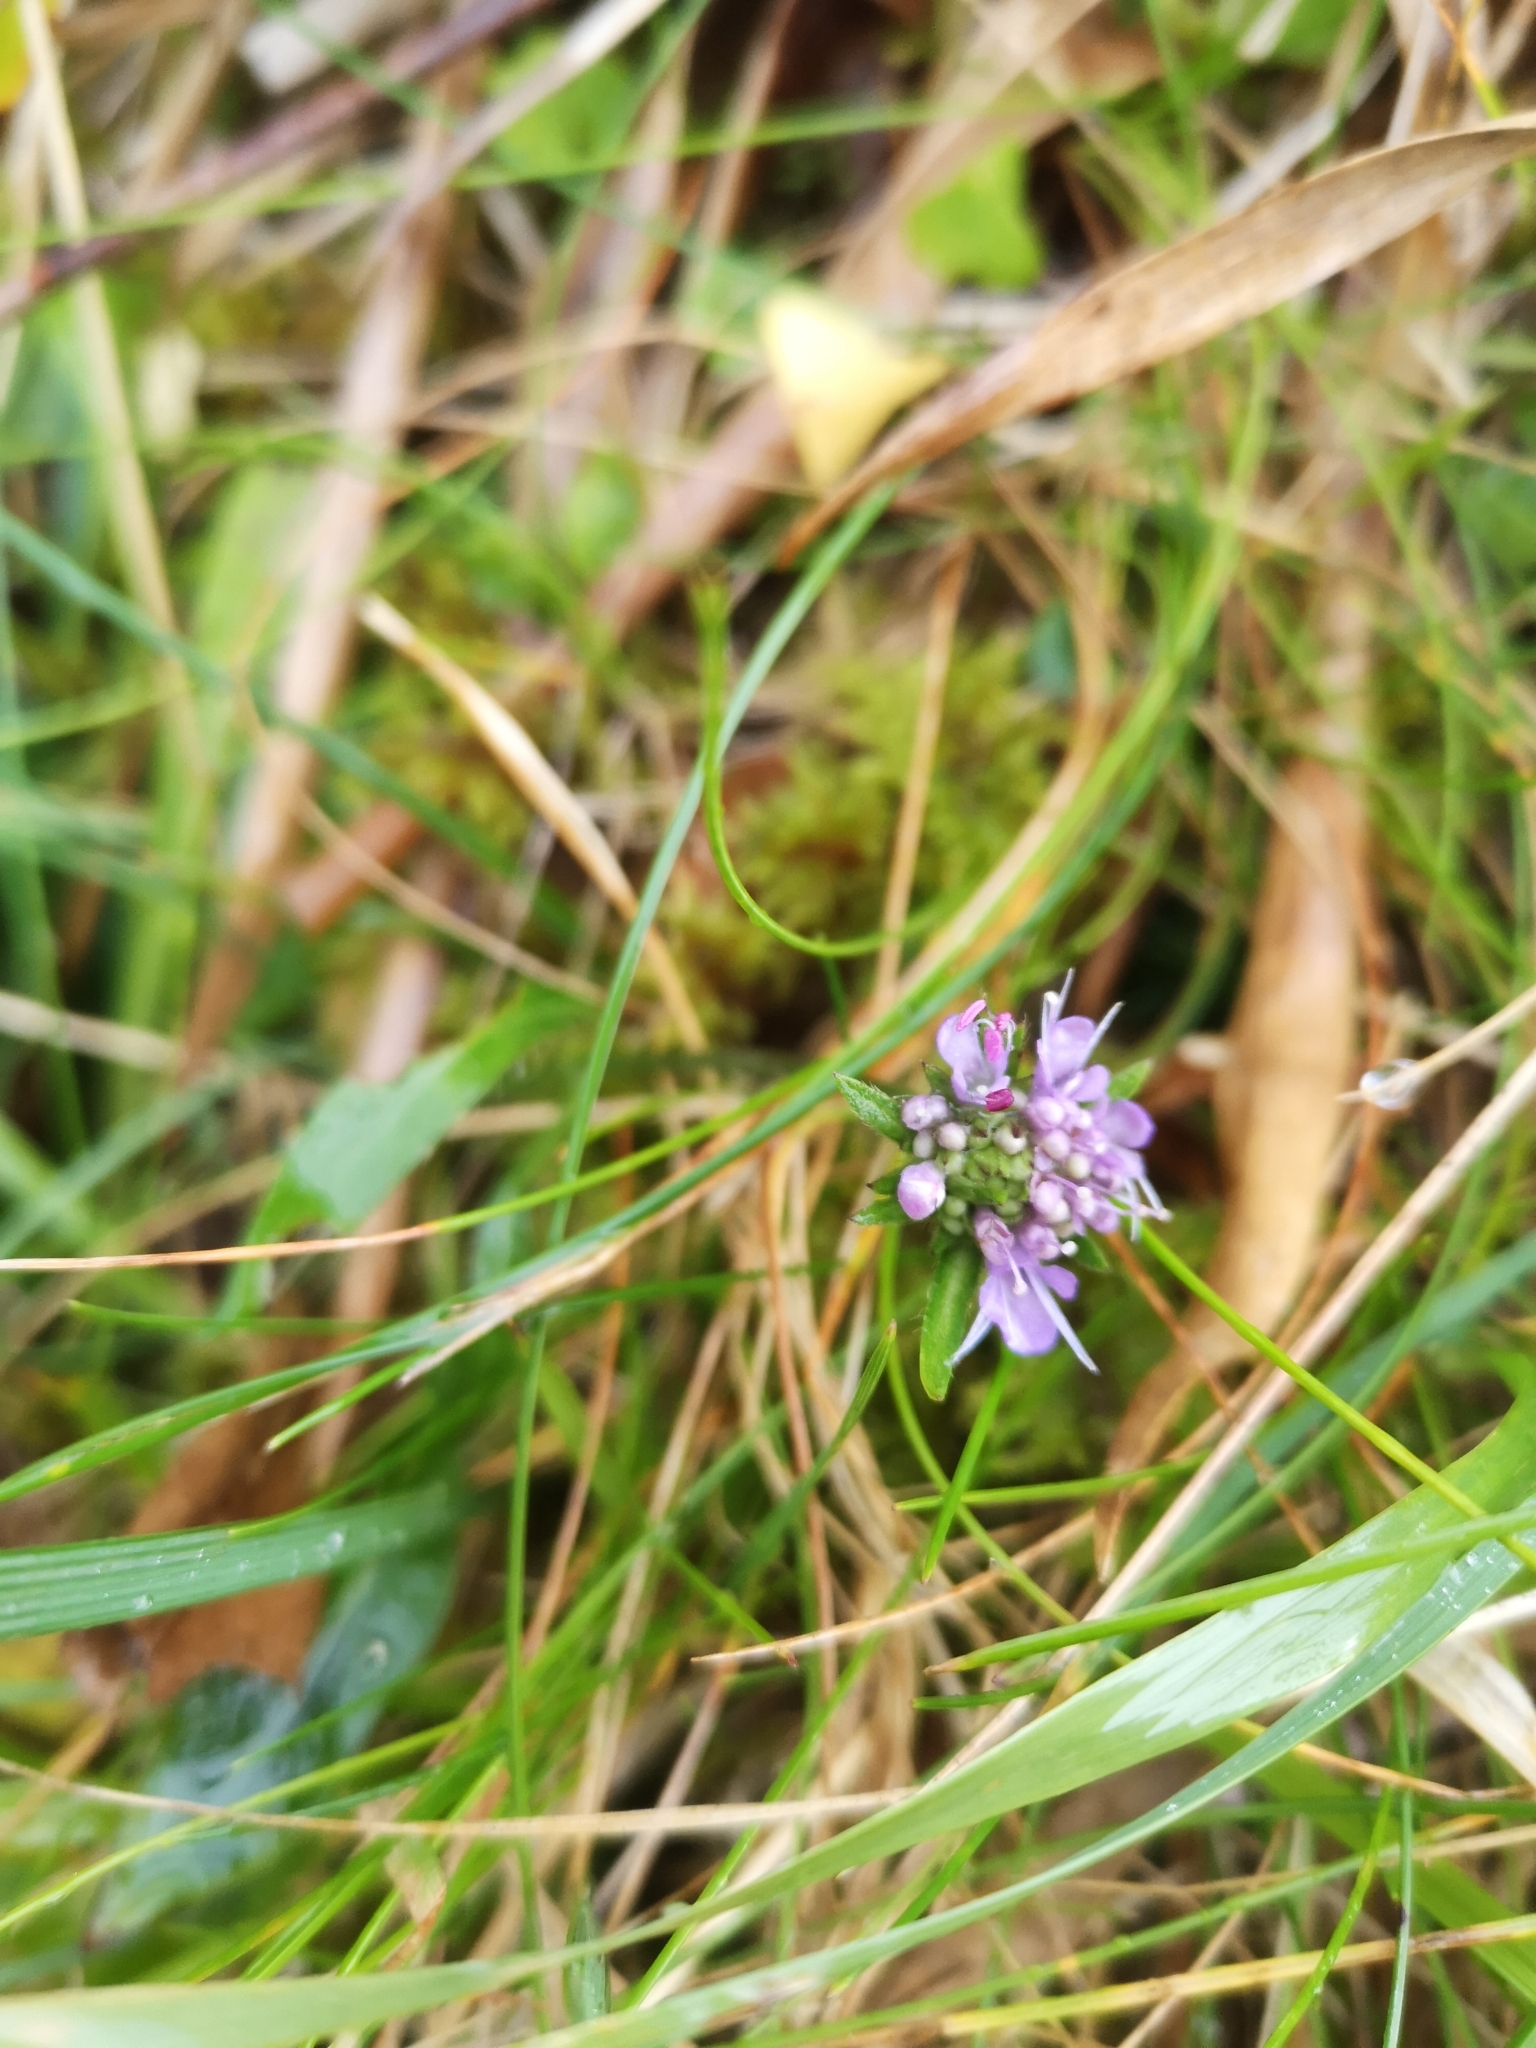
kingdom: Plantae
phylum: Tracheophyta
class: Magnoliopsida
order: Dipsacales
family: Caprifoliaceae
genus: Succisa
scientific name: Succisa pratensis
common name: Devil's-bit
